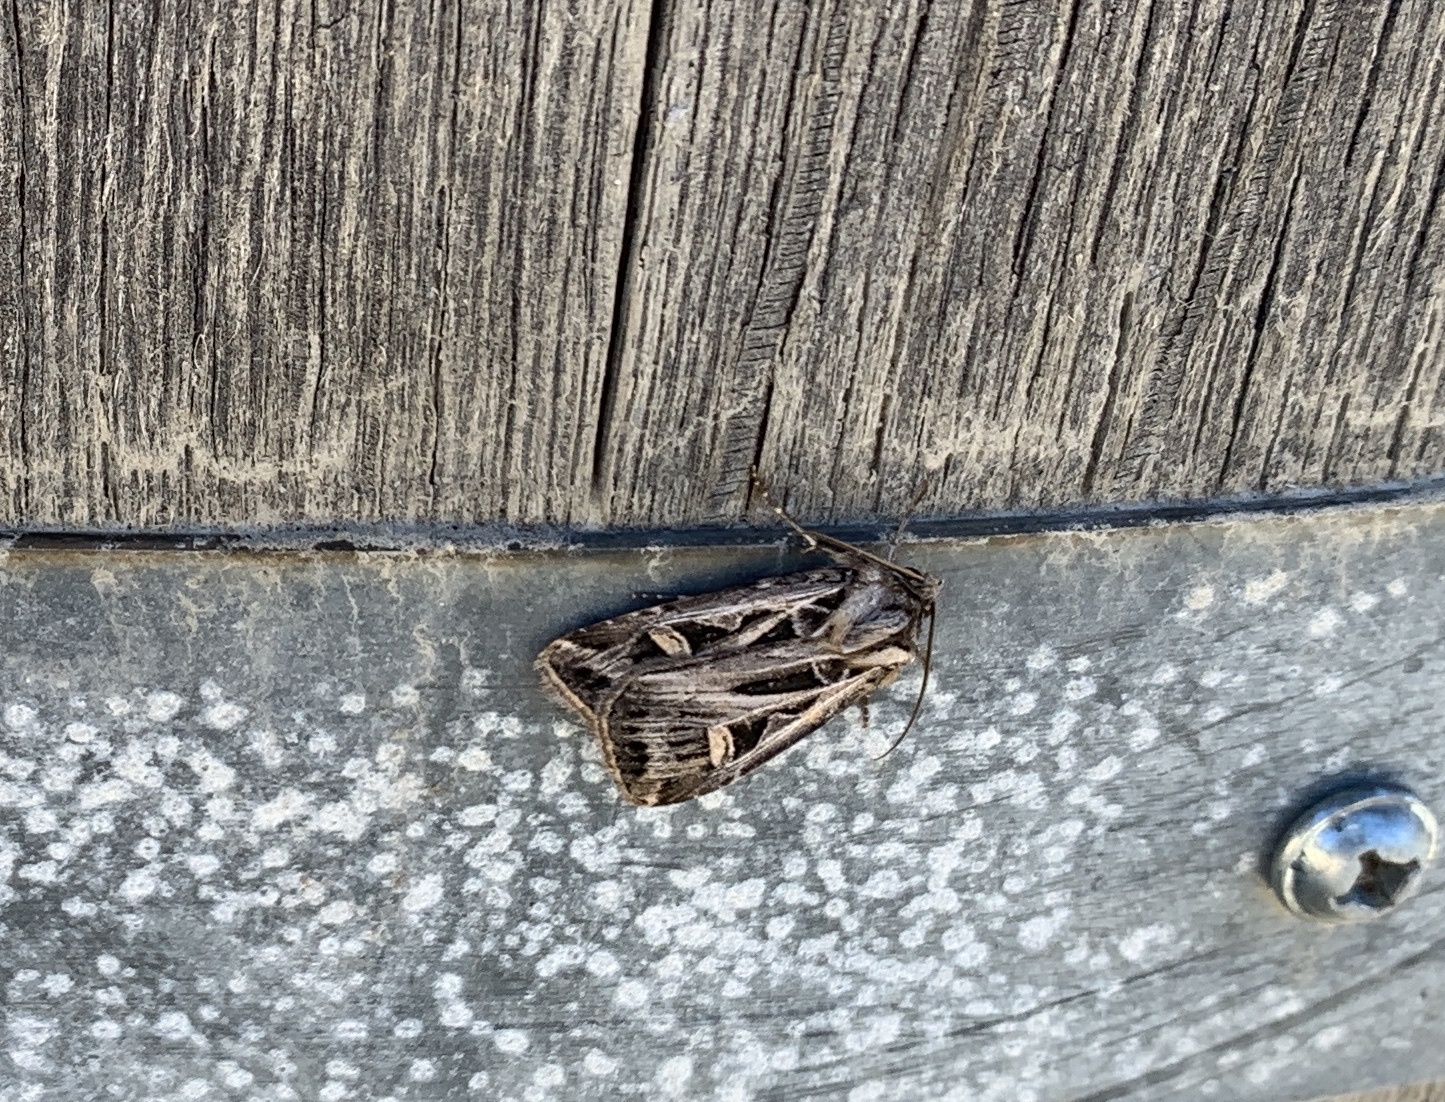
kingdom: Animalia
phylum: Arthropoda
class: Insecta
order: Lepidoptera
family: Noctuidae
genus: Feltia
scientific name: Feltia jaculifera
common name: Dingy cutworm moth
